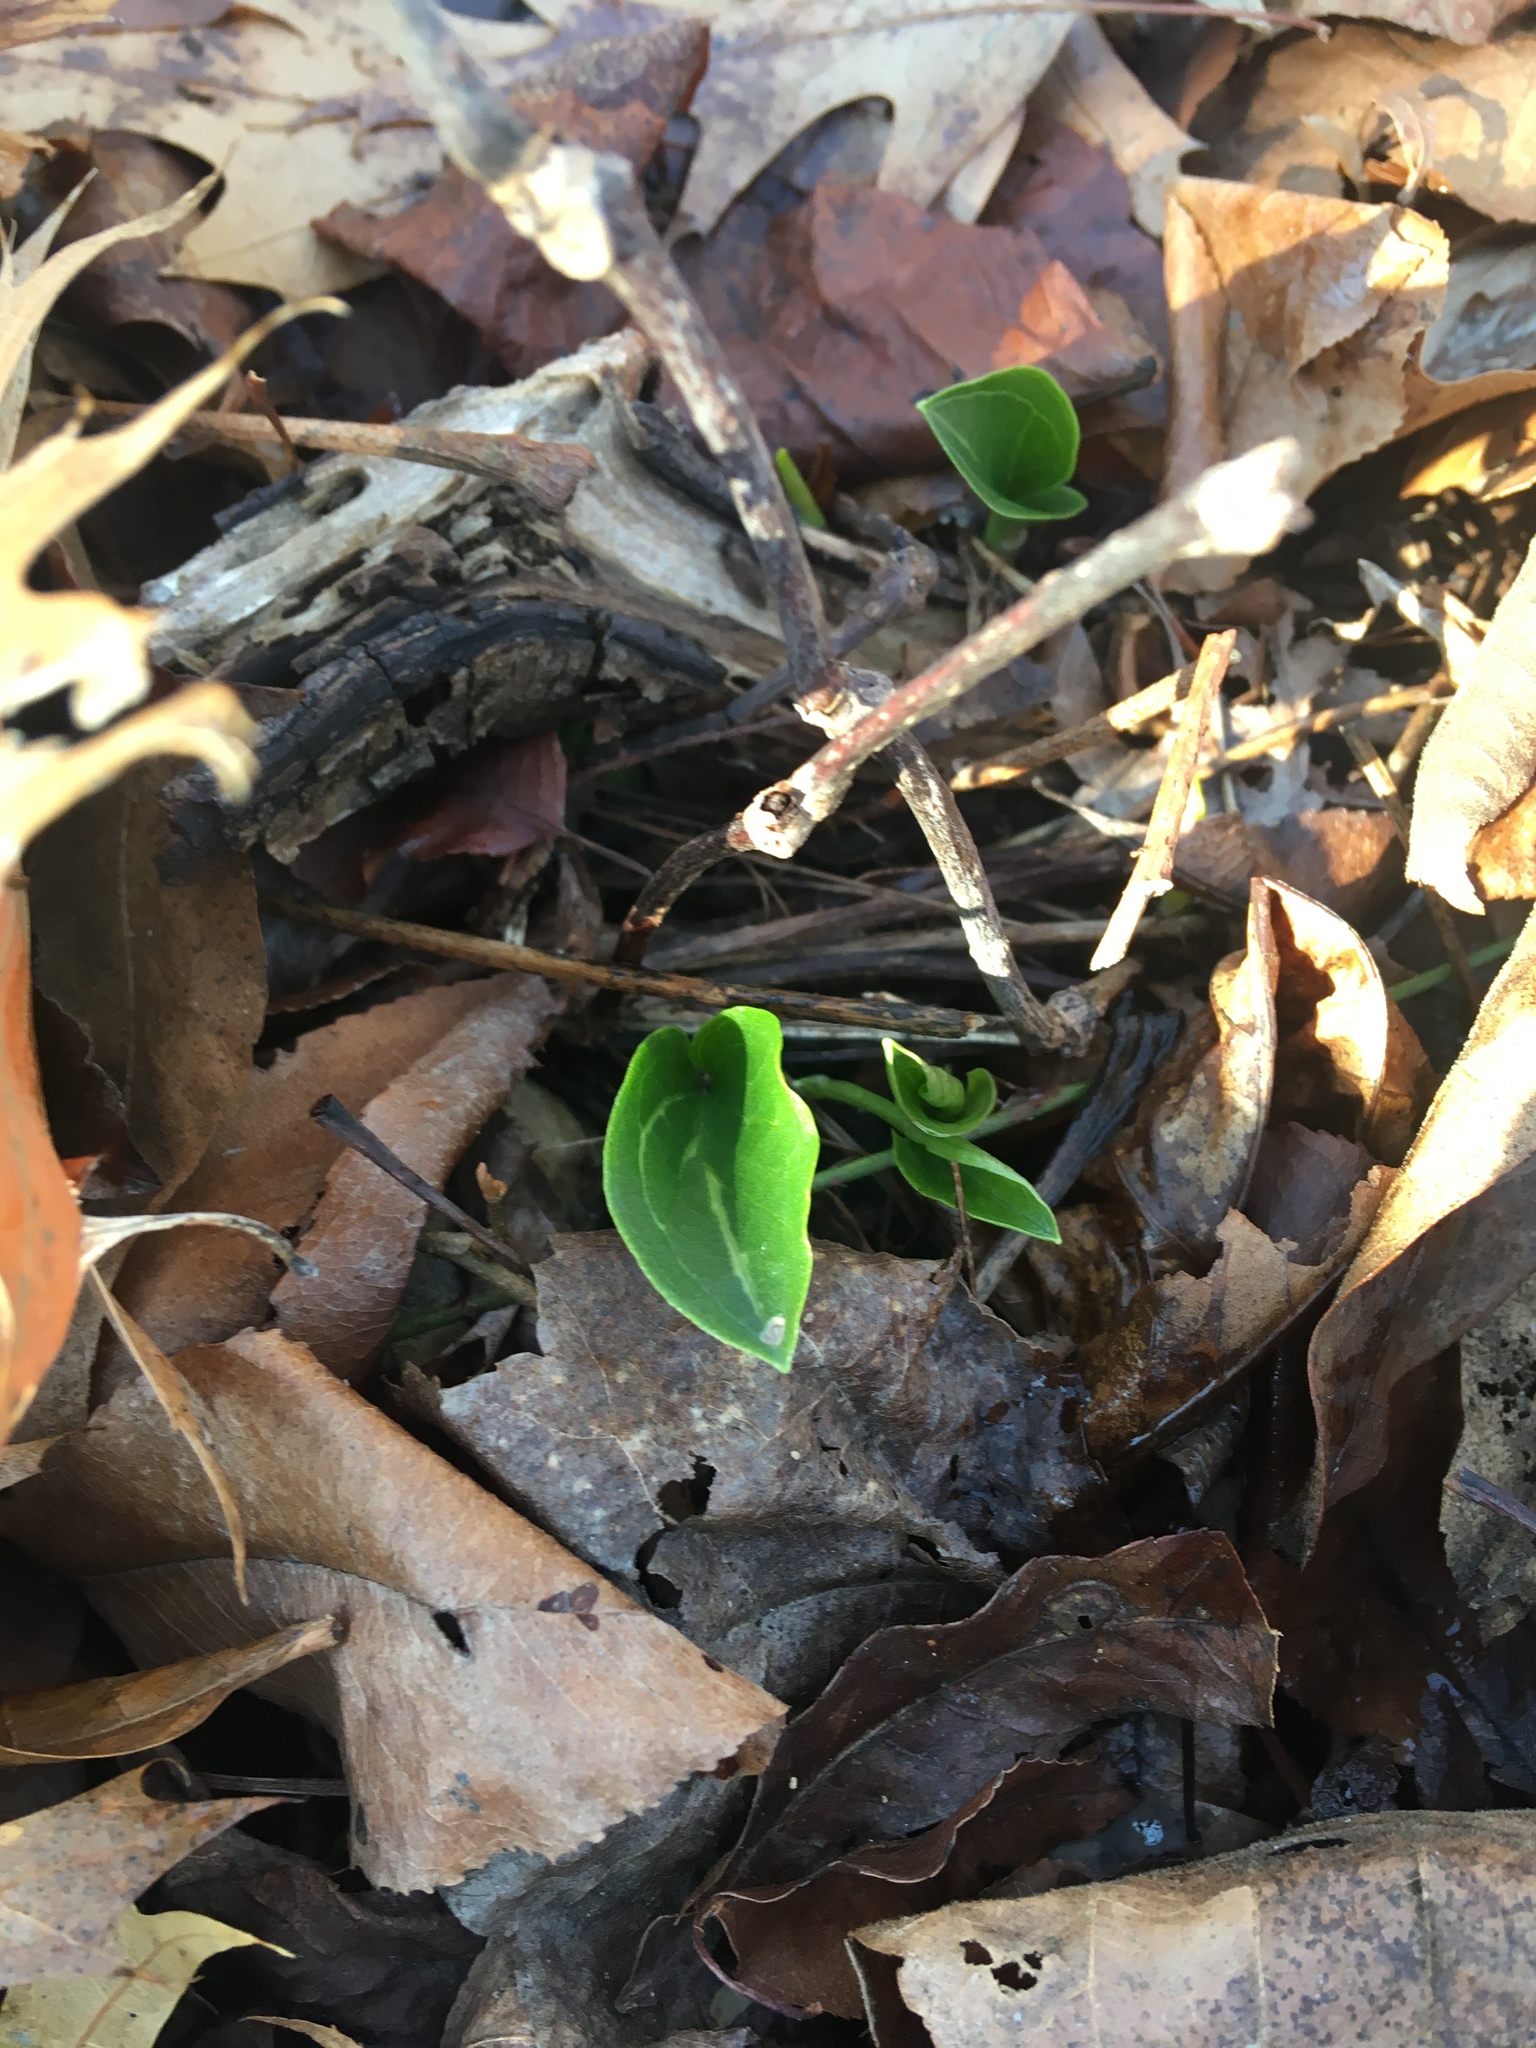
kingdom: Plantae
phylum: Tracheophyta
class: Liliopsida
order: Alismatales
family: Araceae
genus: Arum
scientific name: Arum italicum
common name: Italian lords-and-ladies
